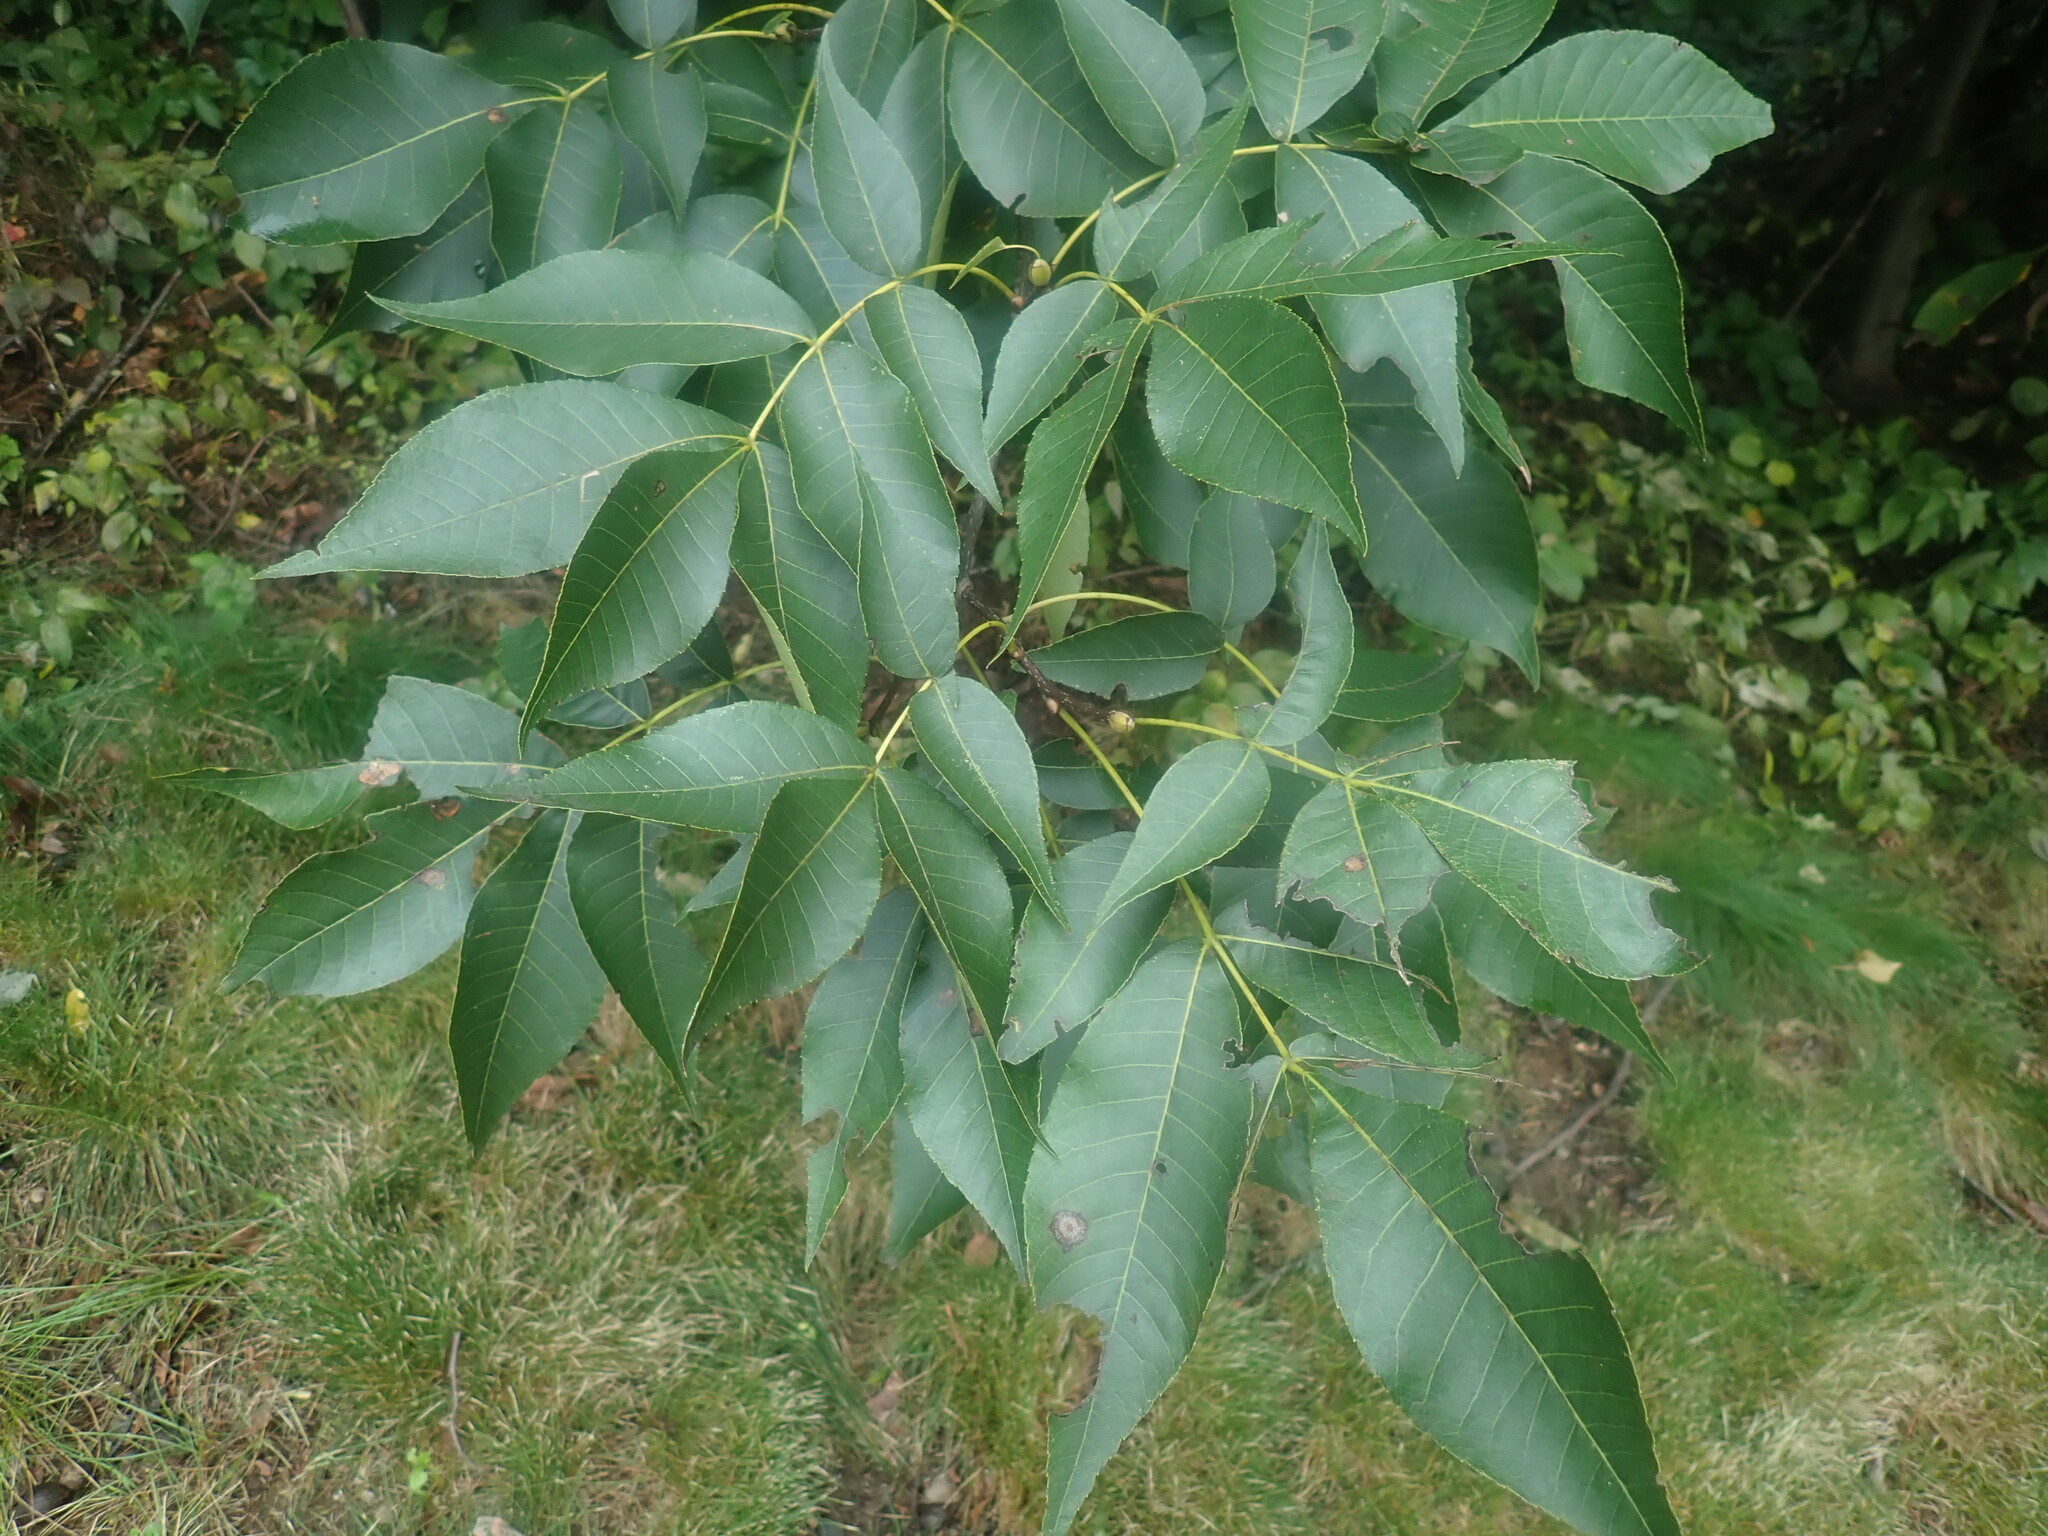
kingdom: Plantae
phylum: Tracheophyta
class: Magnoliopsida
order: Fagales
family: Juglandaceae
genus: Carya
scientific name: Carya
